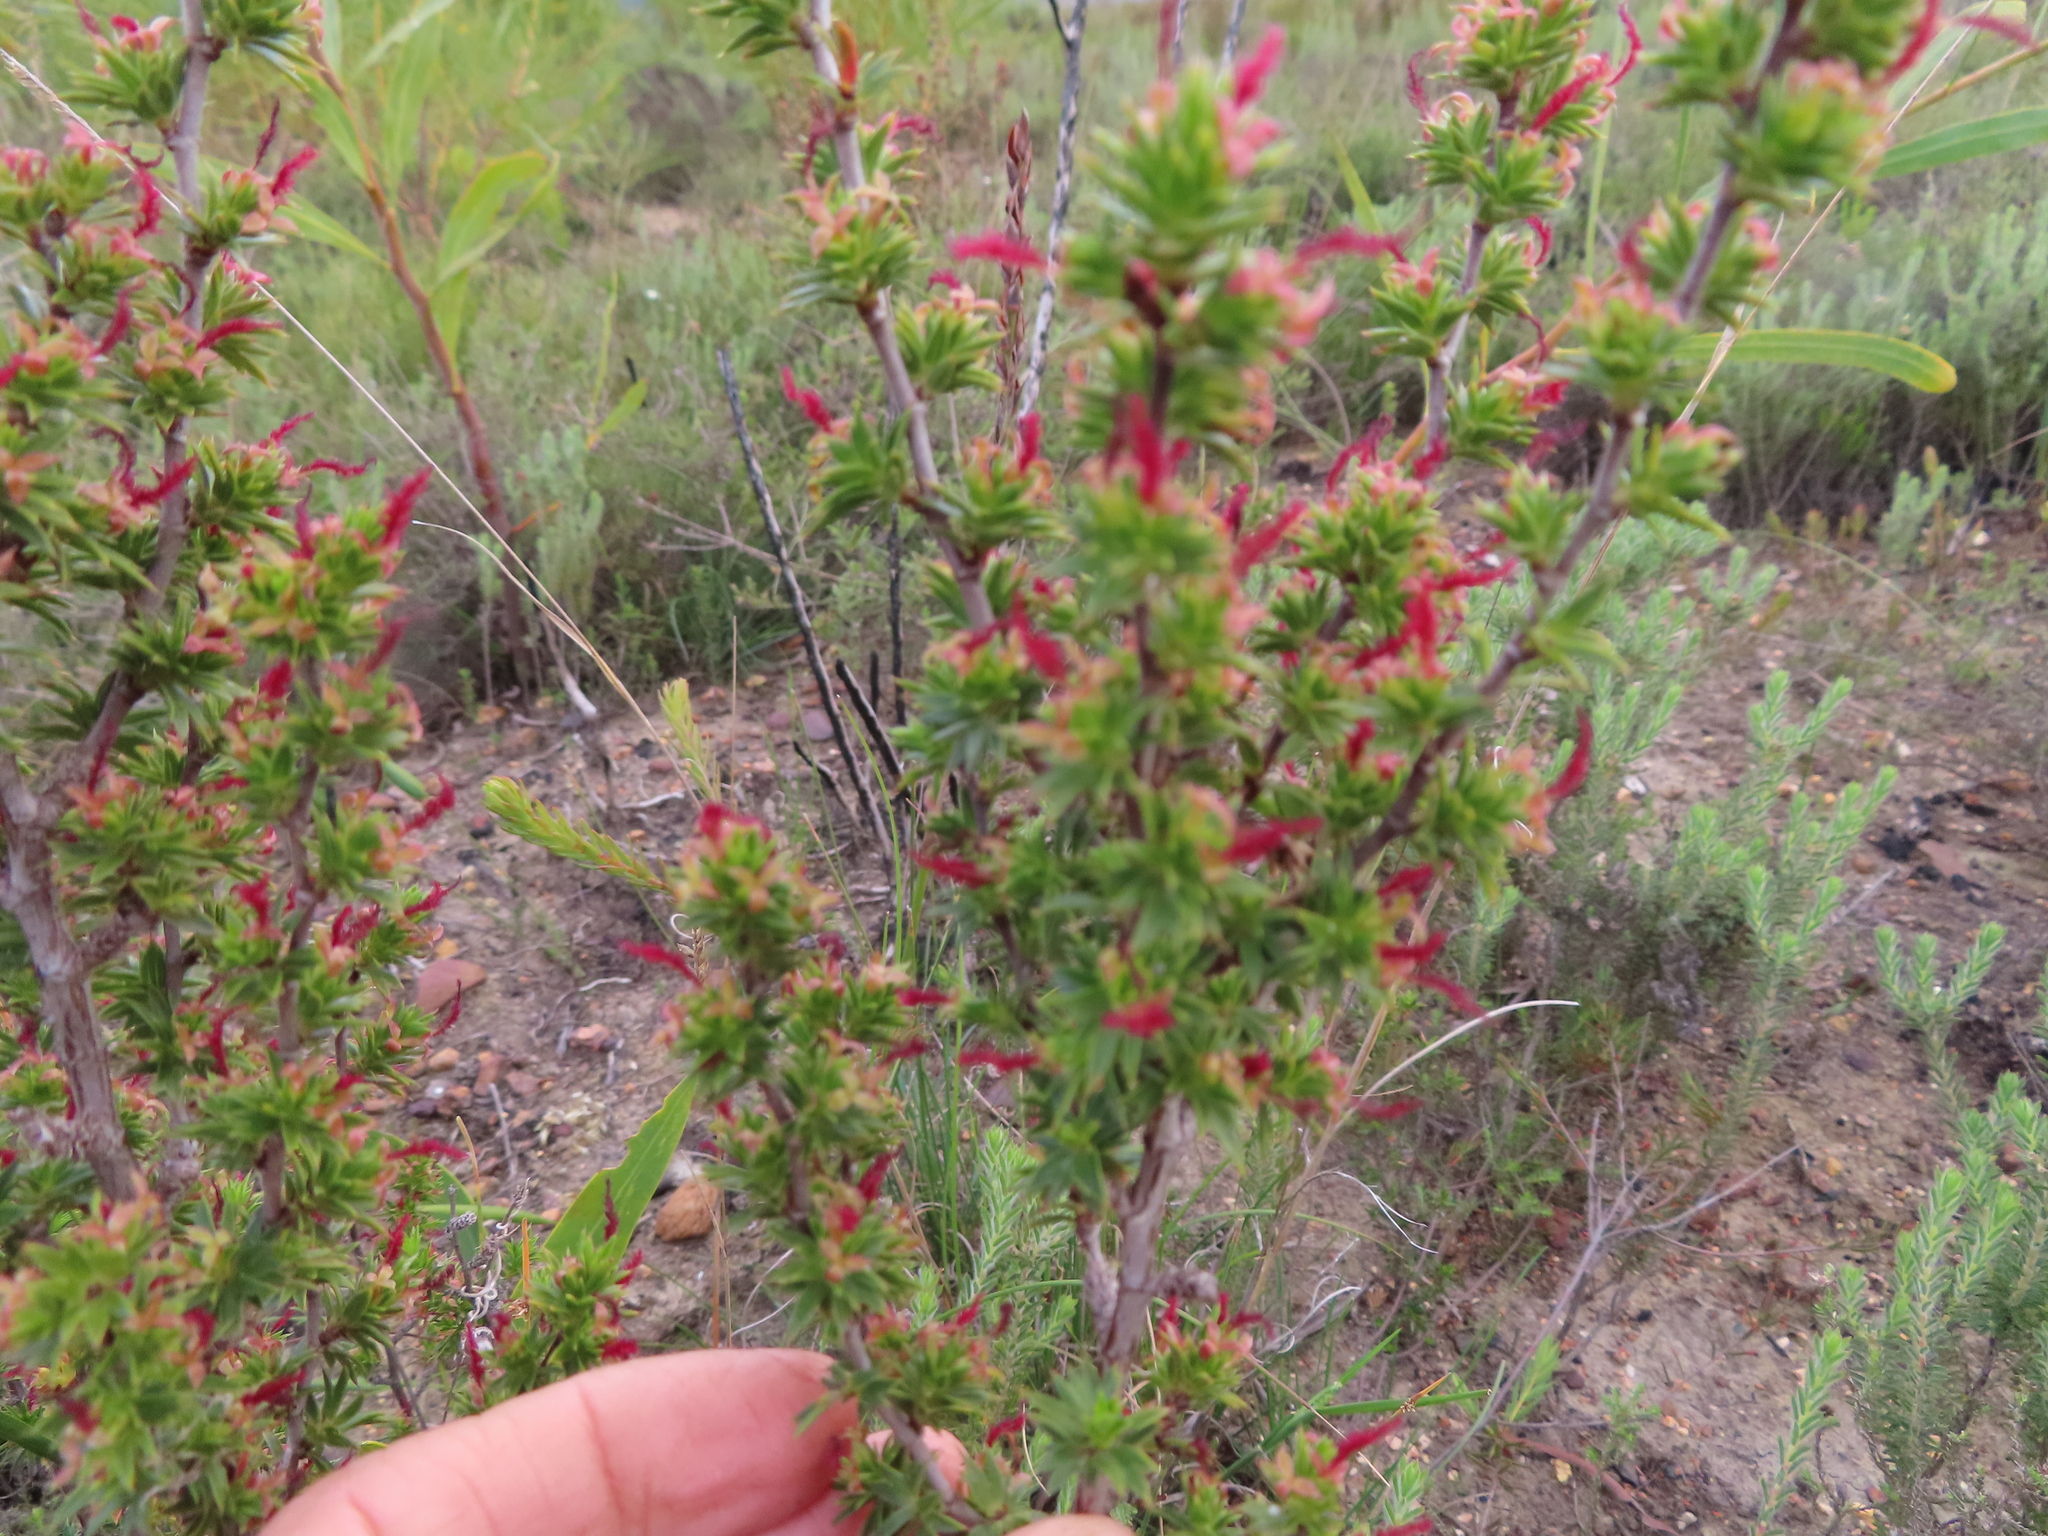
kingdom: Plantae
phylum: Tracheophyta
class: Magnoliopsida
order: Rosales
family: Rosaceae
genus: Cliffortia
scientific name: Cliffortia ferricola
